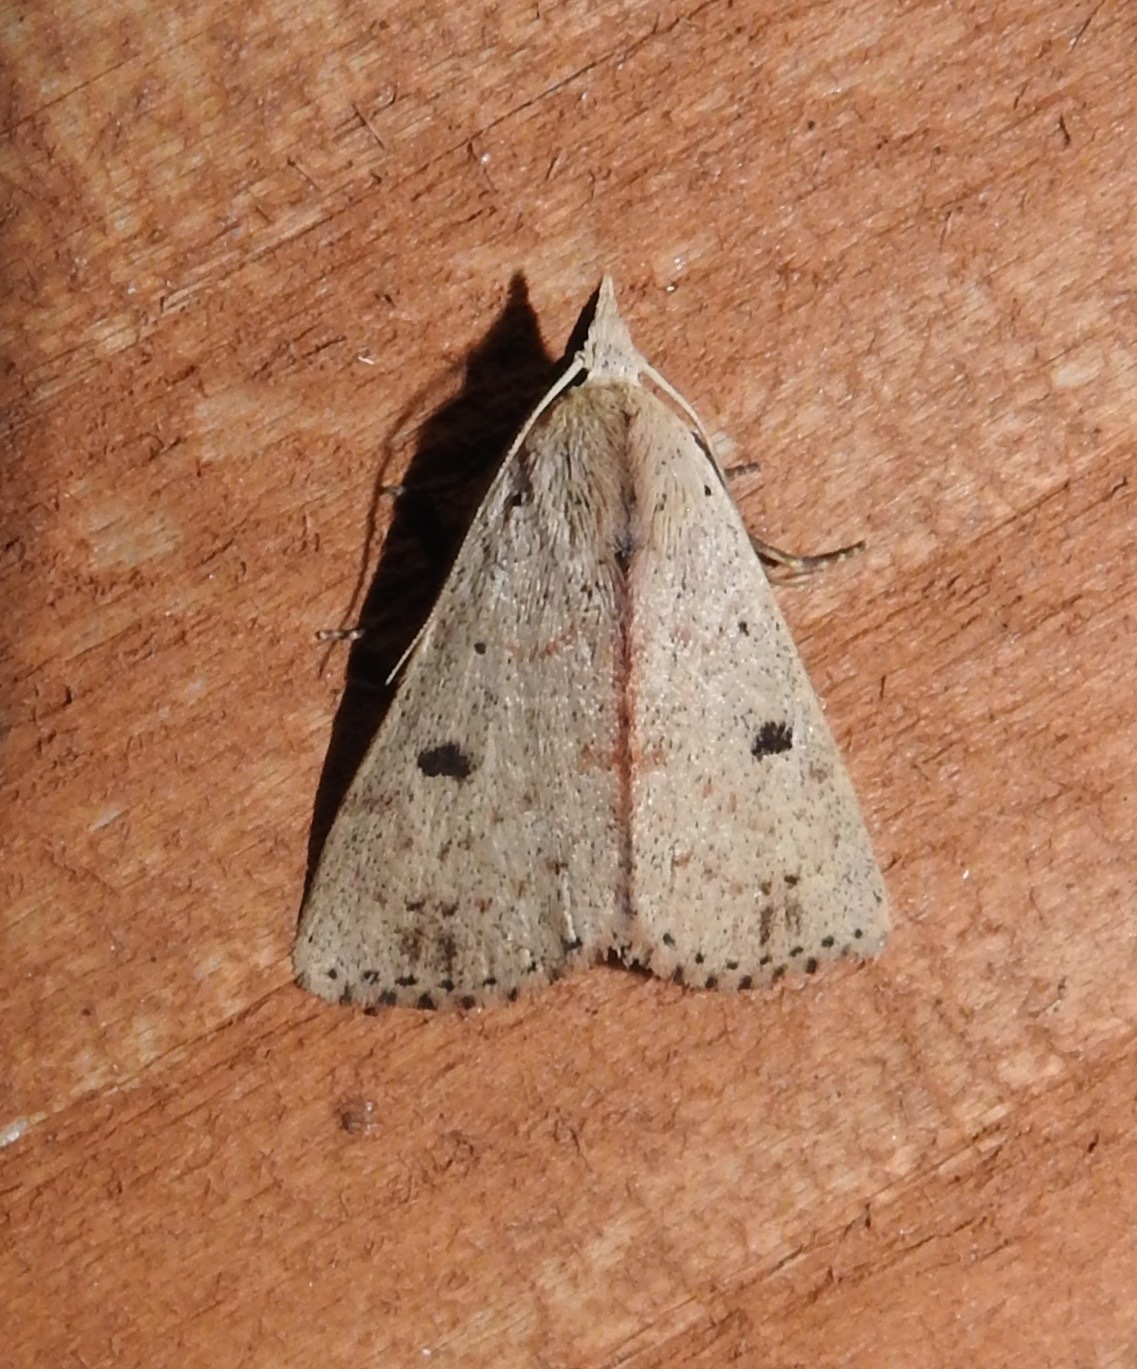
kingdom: Animalia
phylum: Arthropoda
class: Insecta
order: Lepidoptera
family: Erebidae
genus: Scolecocampa
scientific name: Scolecocampa liburna
